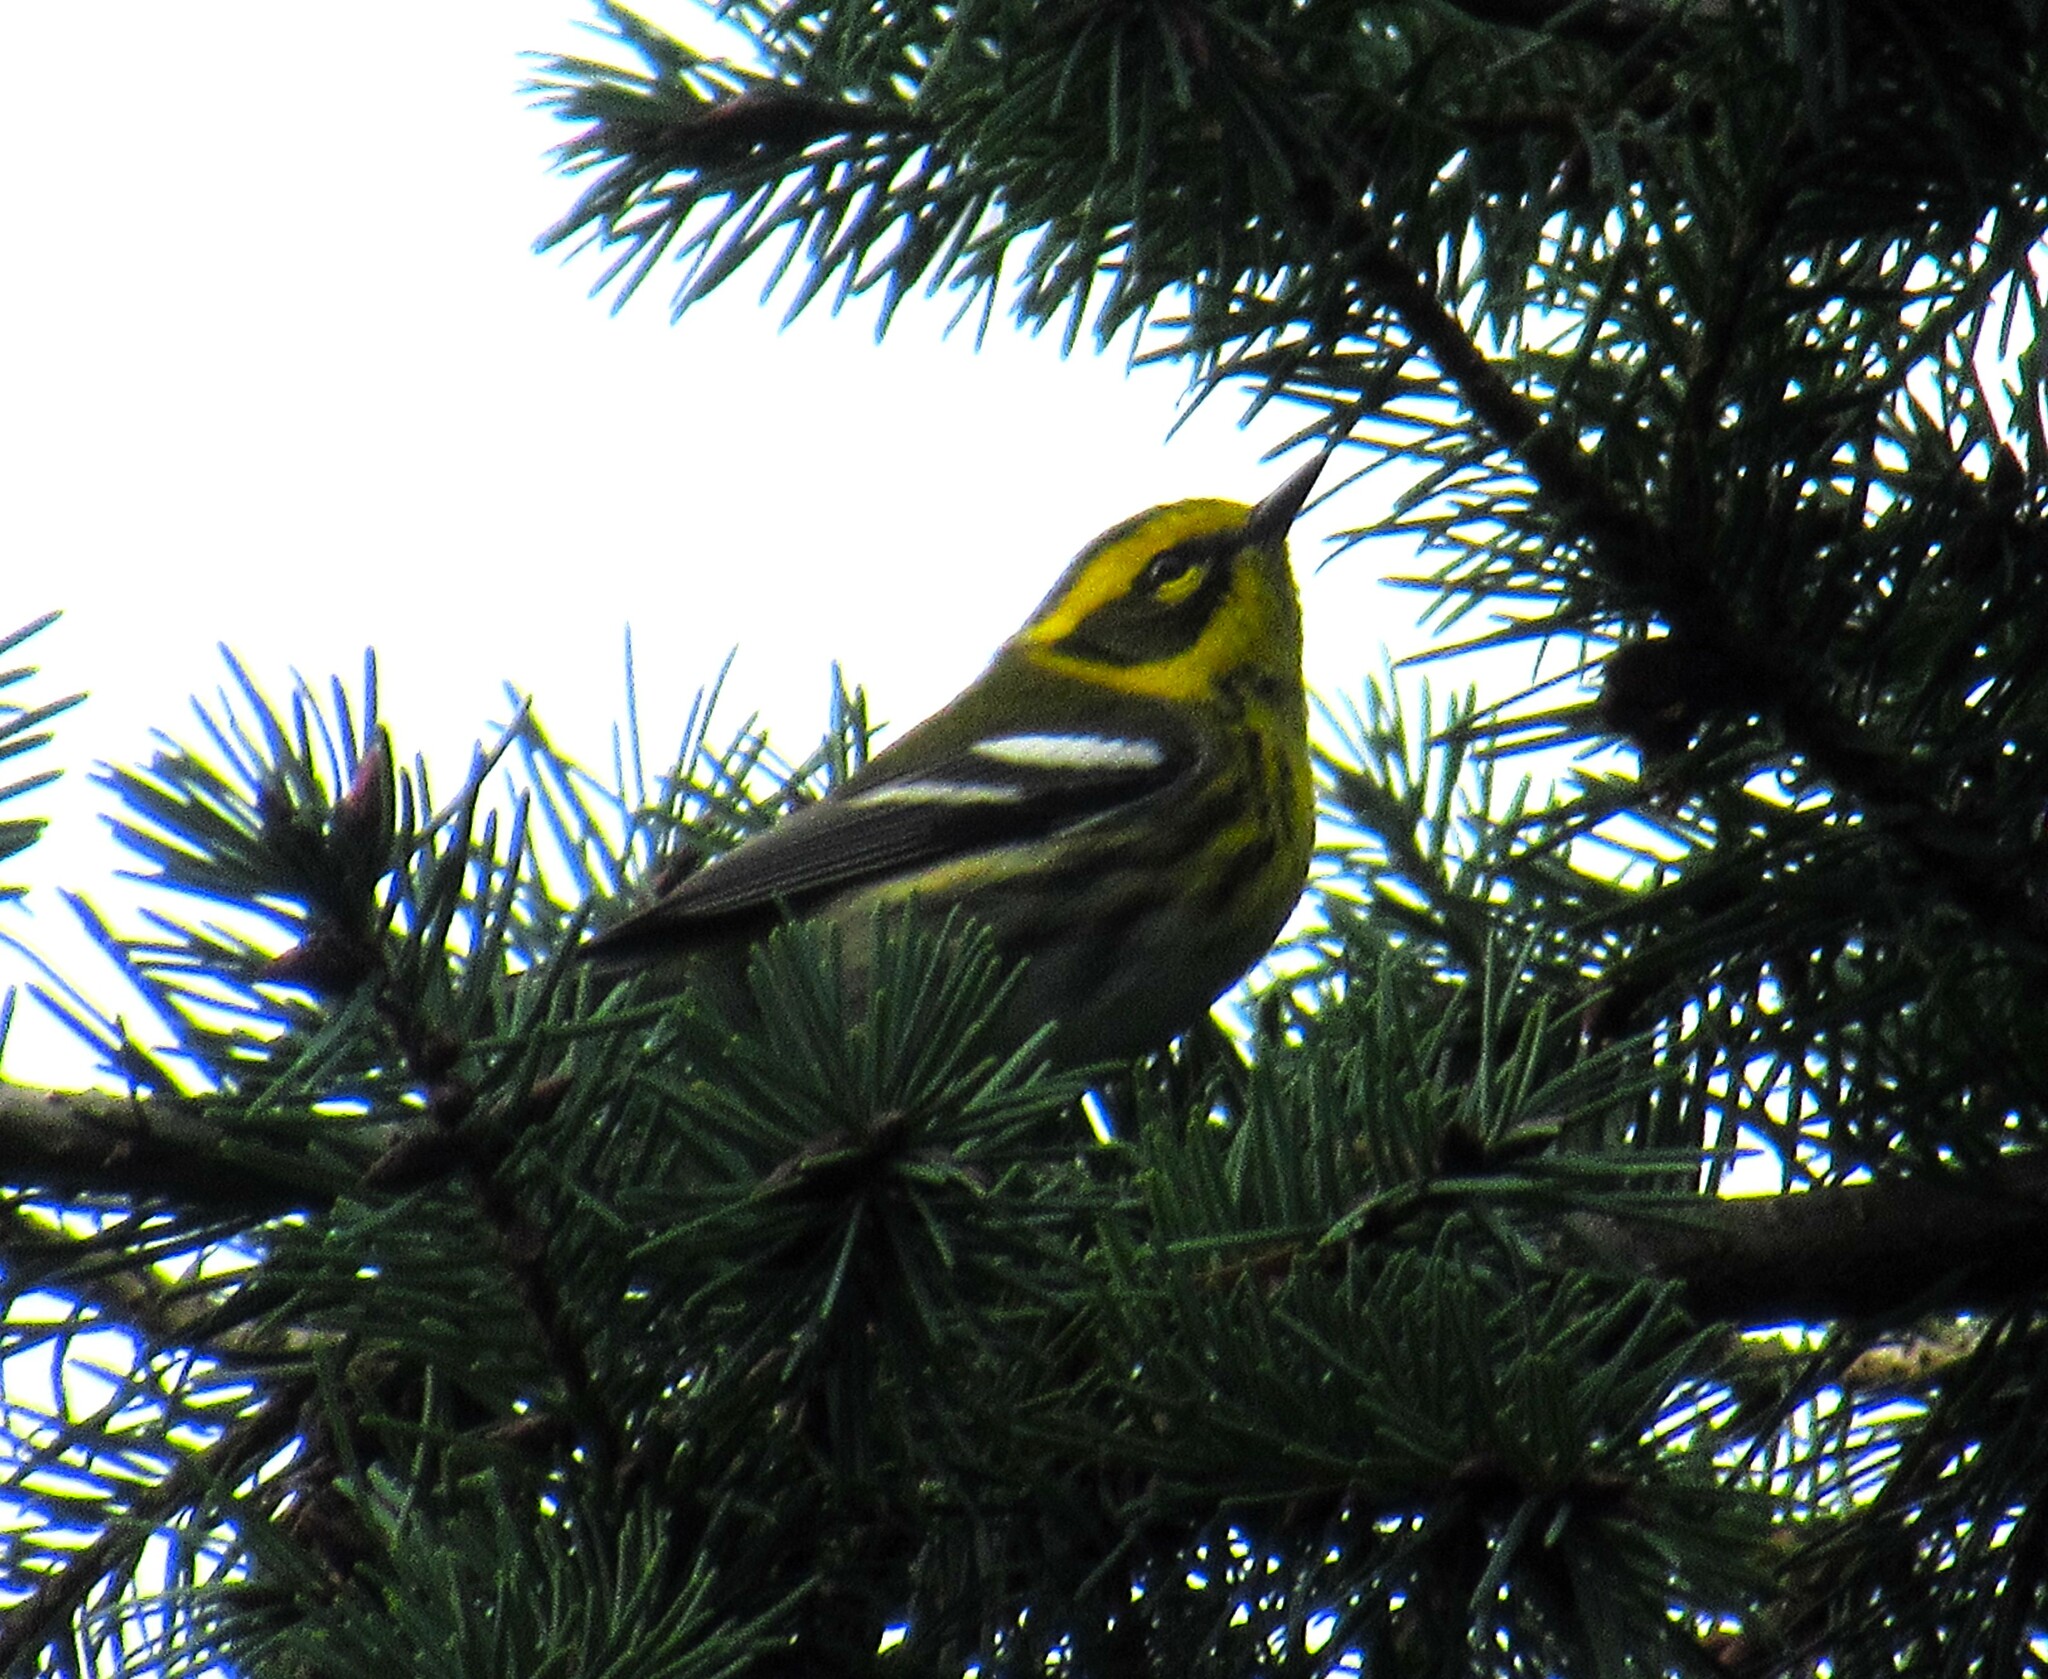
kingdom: Animalia
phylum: Chordata
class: Aves
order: Passeriformes
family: Parulidae
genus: Setophaga
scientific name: Setophaga townsendi
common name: Townsend's warbler
